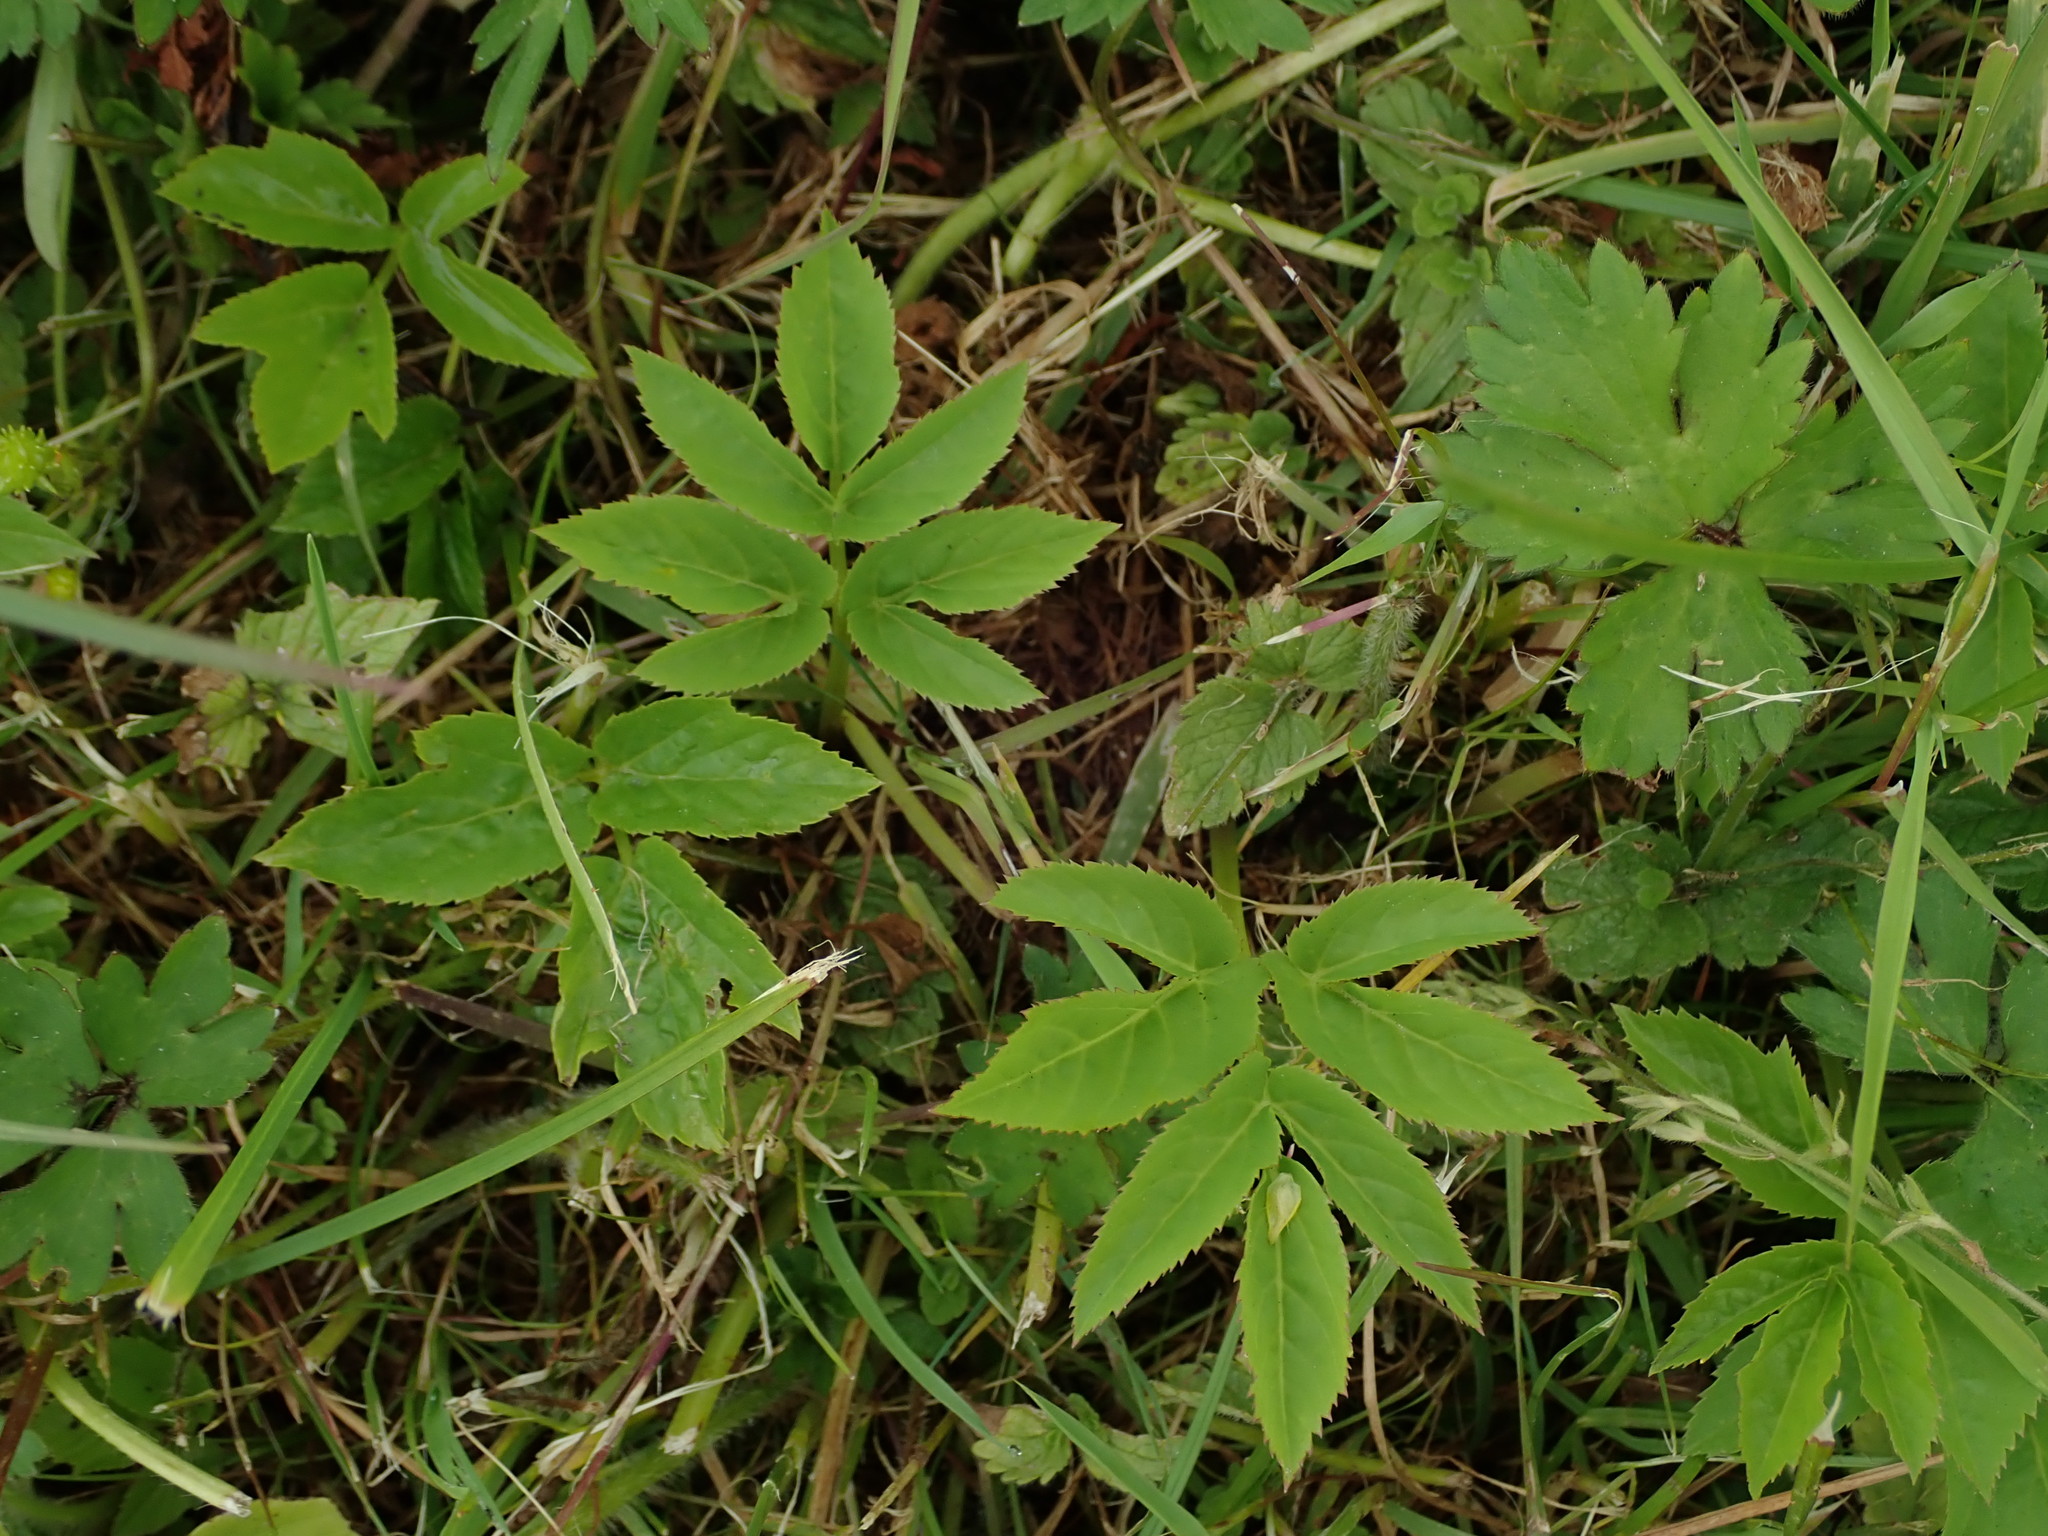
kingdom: Plantae
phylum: Tracheophyta
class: Magnoliopsida
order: Apiales
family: Apiaceae
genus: Aegopodium
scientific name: Aegopodium podagraria
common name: Ground-elder
